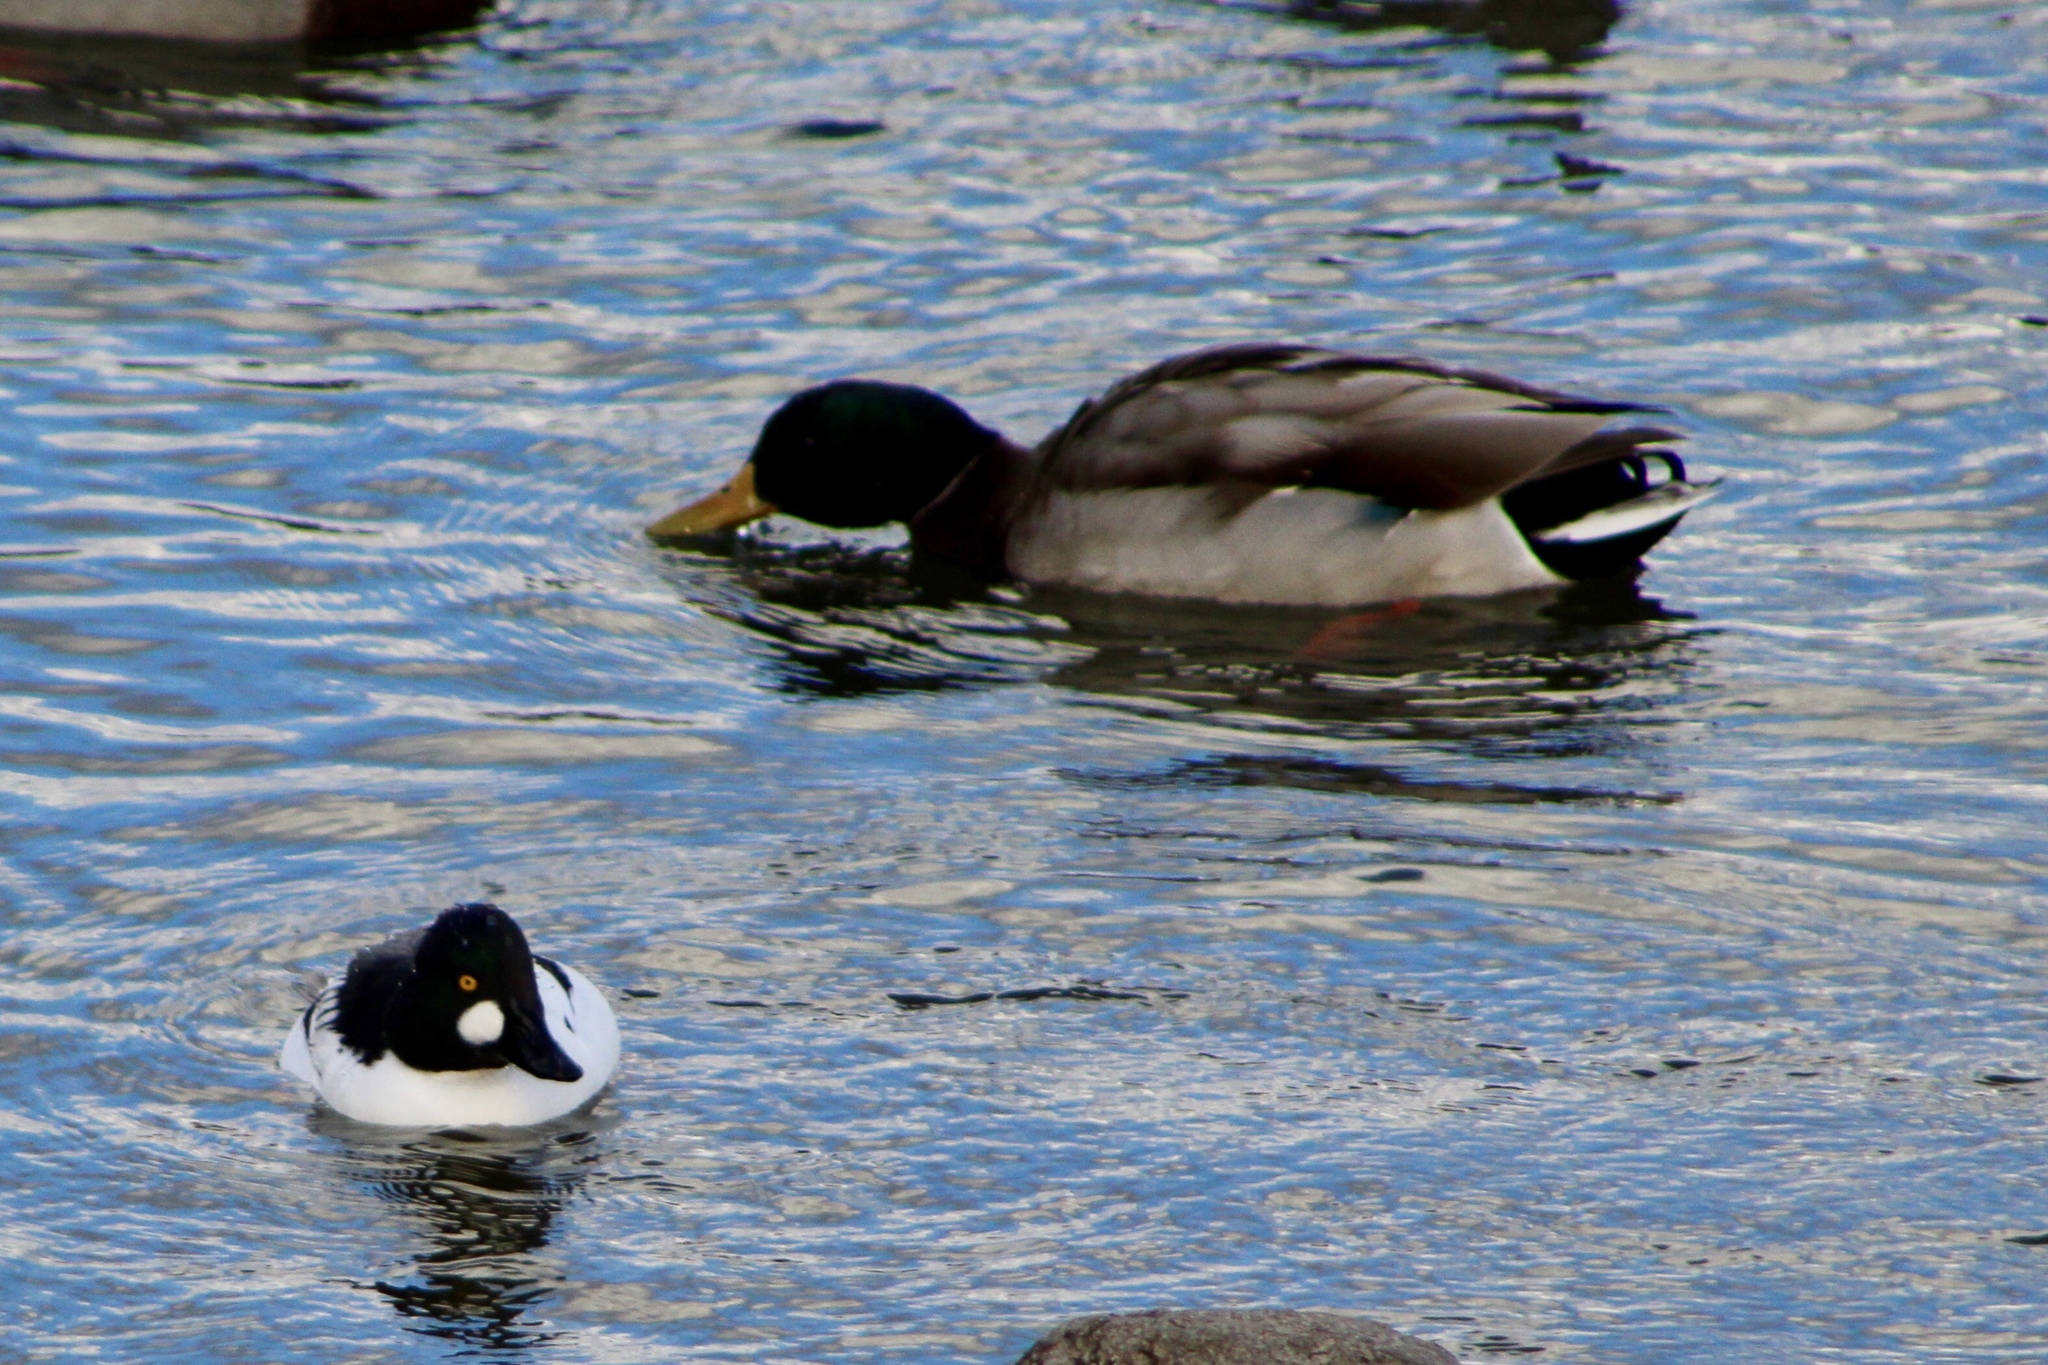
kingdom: Animalia
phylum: Chordata
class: Aves
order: Anseriformes
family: Anatidae
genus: Anas
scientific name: Anas platyrhynchos
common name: Mallard
